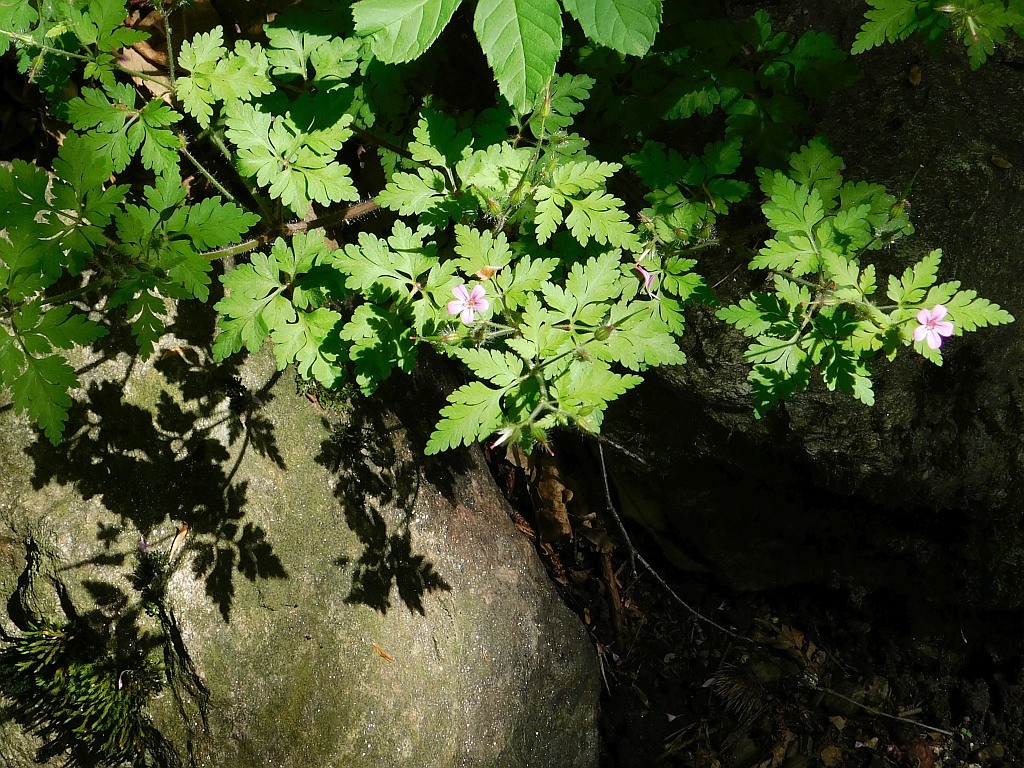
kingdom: Plantae
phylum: Tracheophyta
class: Magnoliopsida
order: Geraniales
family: Geraniaceae
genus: Geranium
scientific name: Geranium robertianum
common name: Herb-robert
